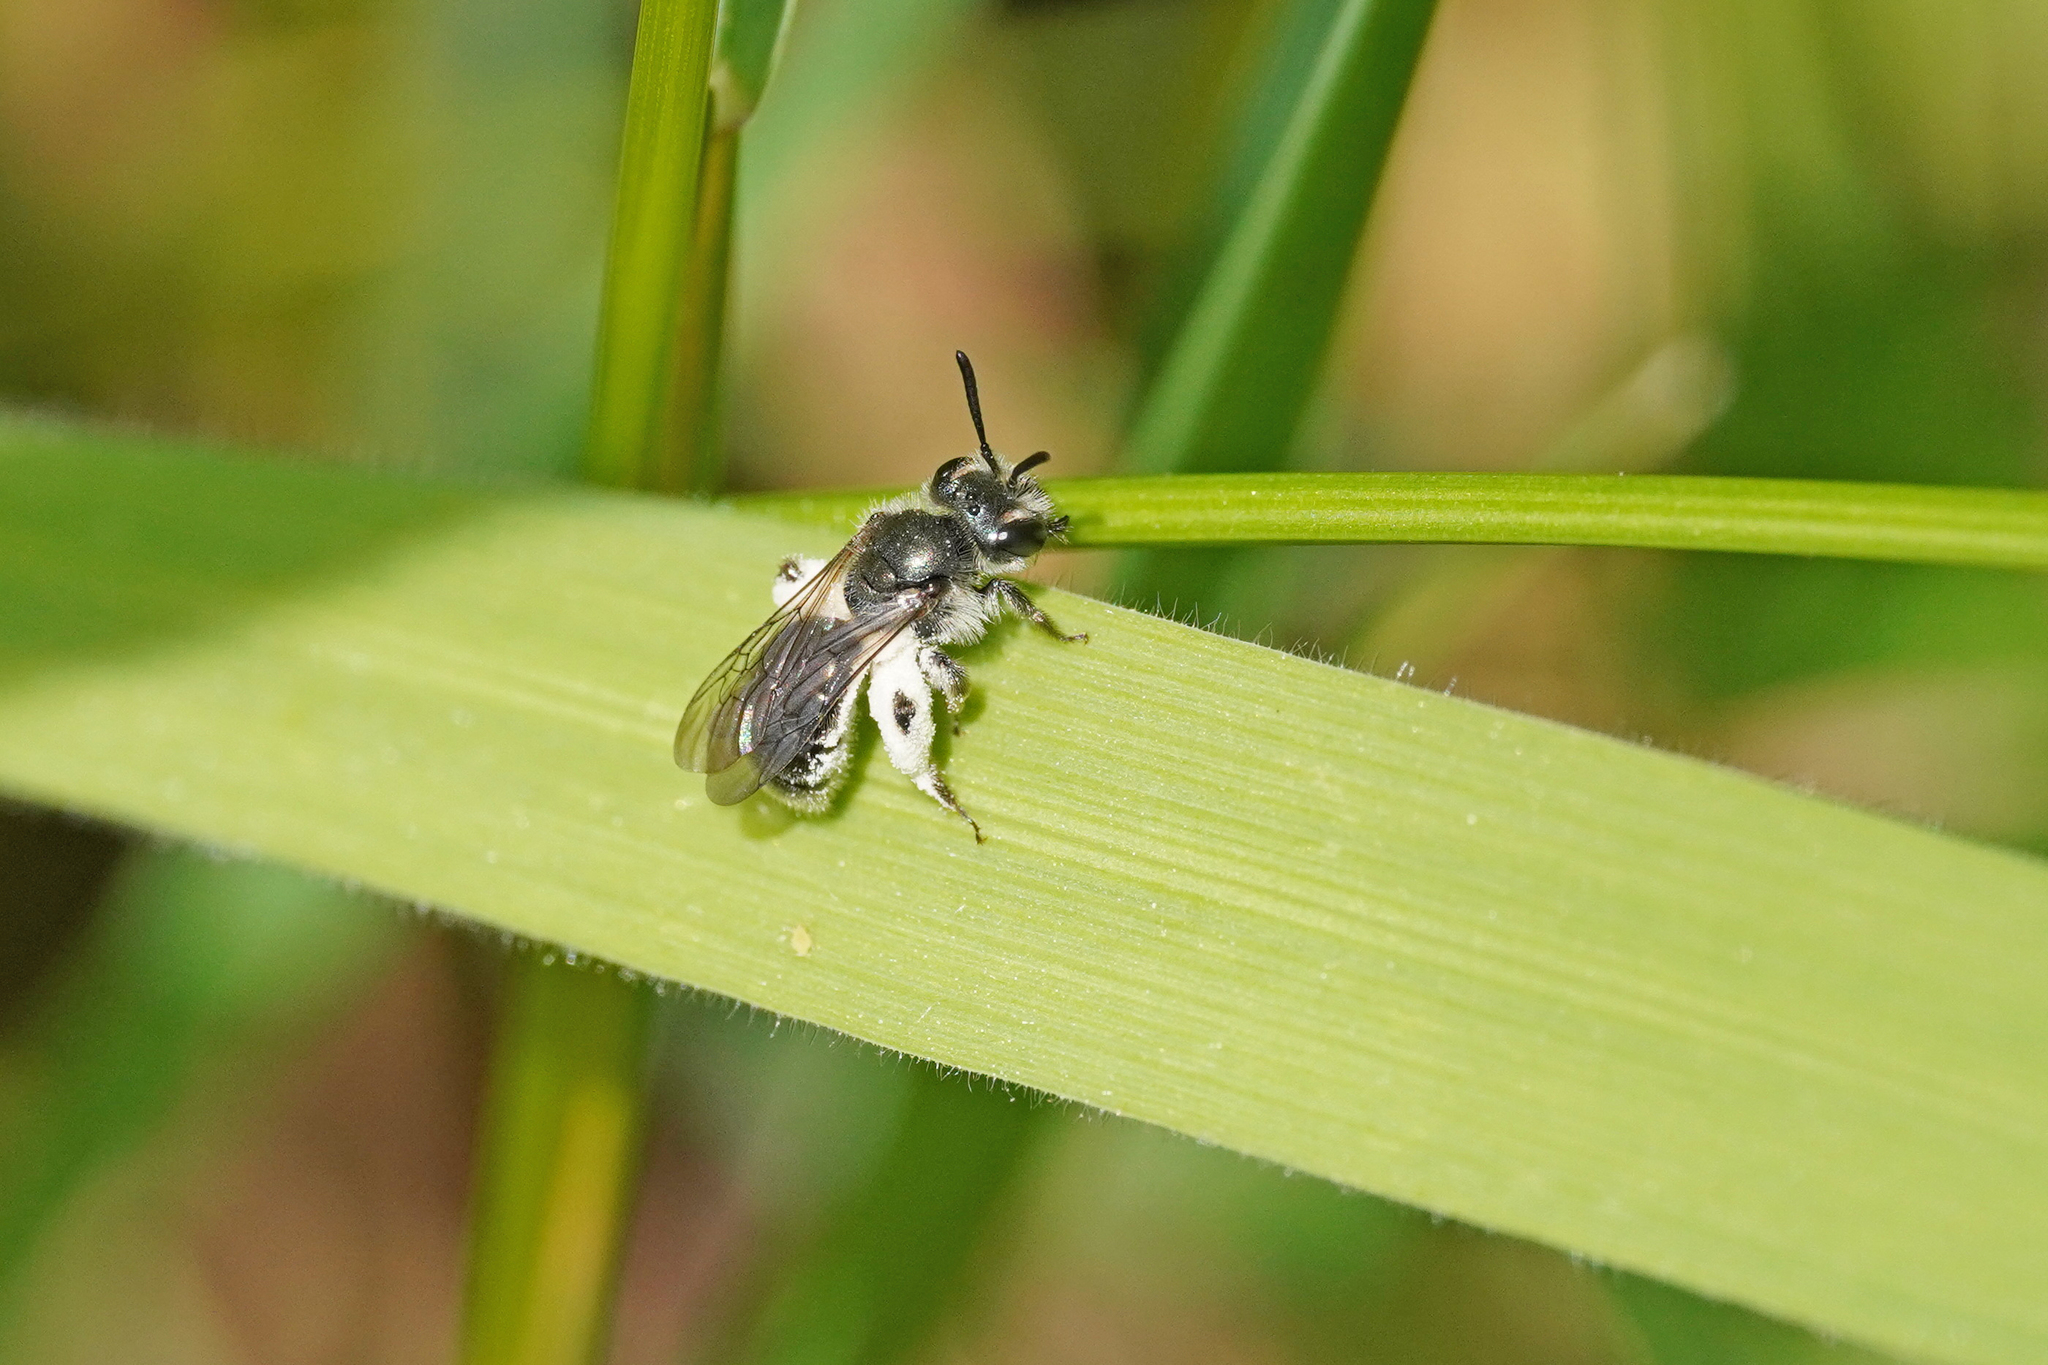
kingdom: Animalia
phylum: Arthropoda
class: Insecta
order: Hymenoptera
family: Andrenidae
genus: Andrena
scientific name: Andrena viridescens
